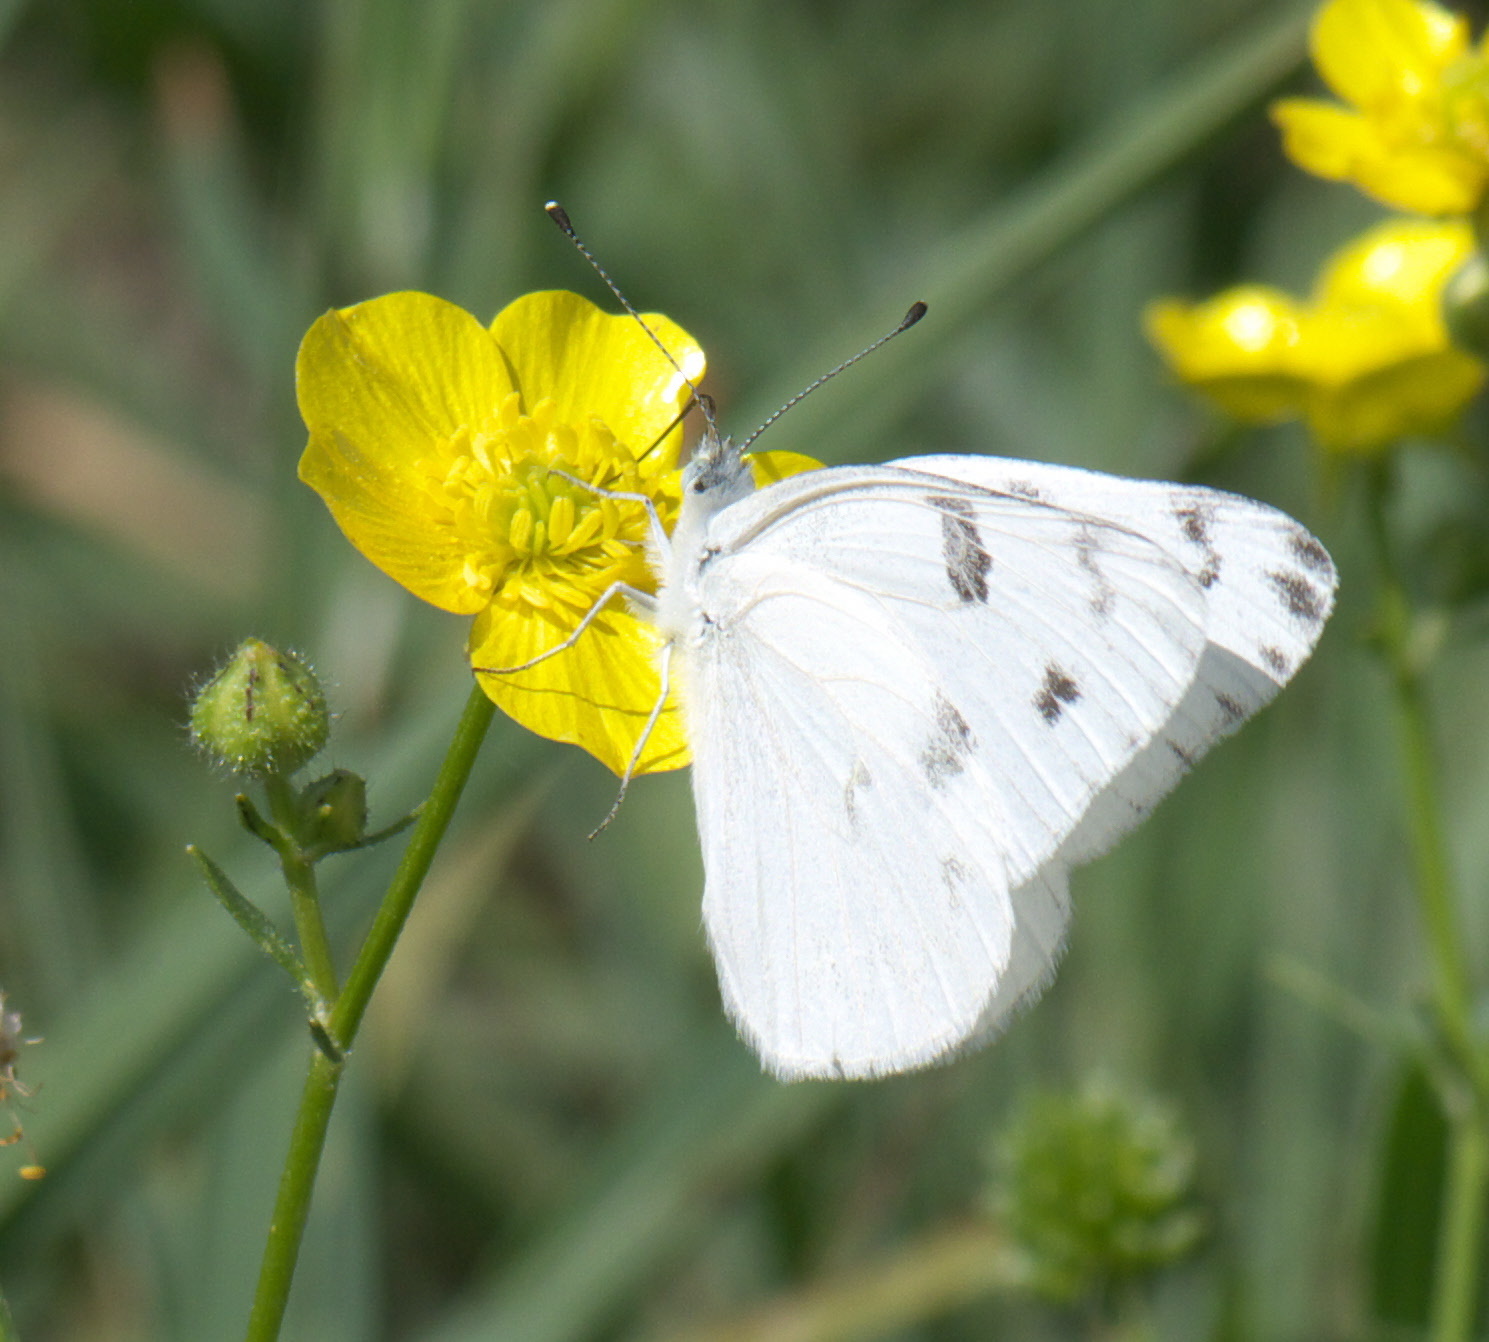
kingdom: Animalia
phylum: Arthropoda
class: Insecta
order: Lepidoptera
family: Pieridae
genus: Pontia
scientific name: Pontia protodice
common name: Checkered white
